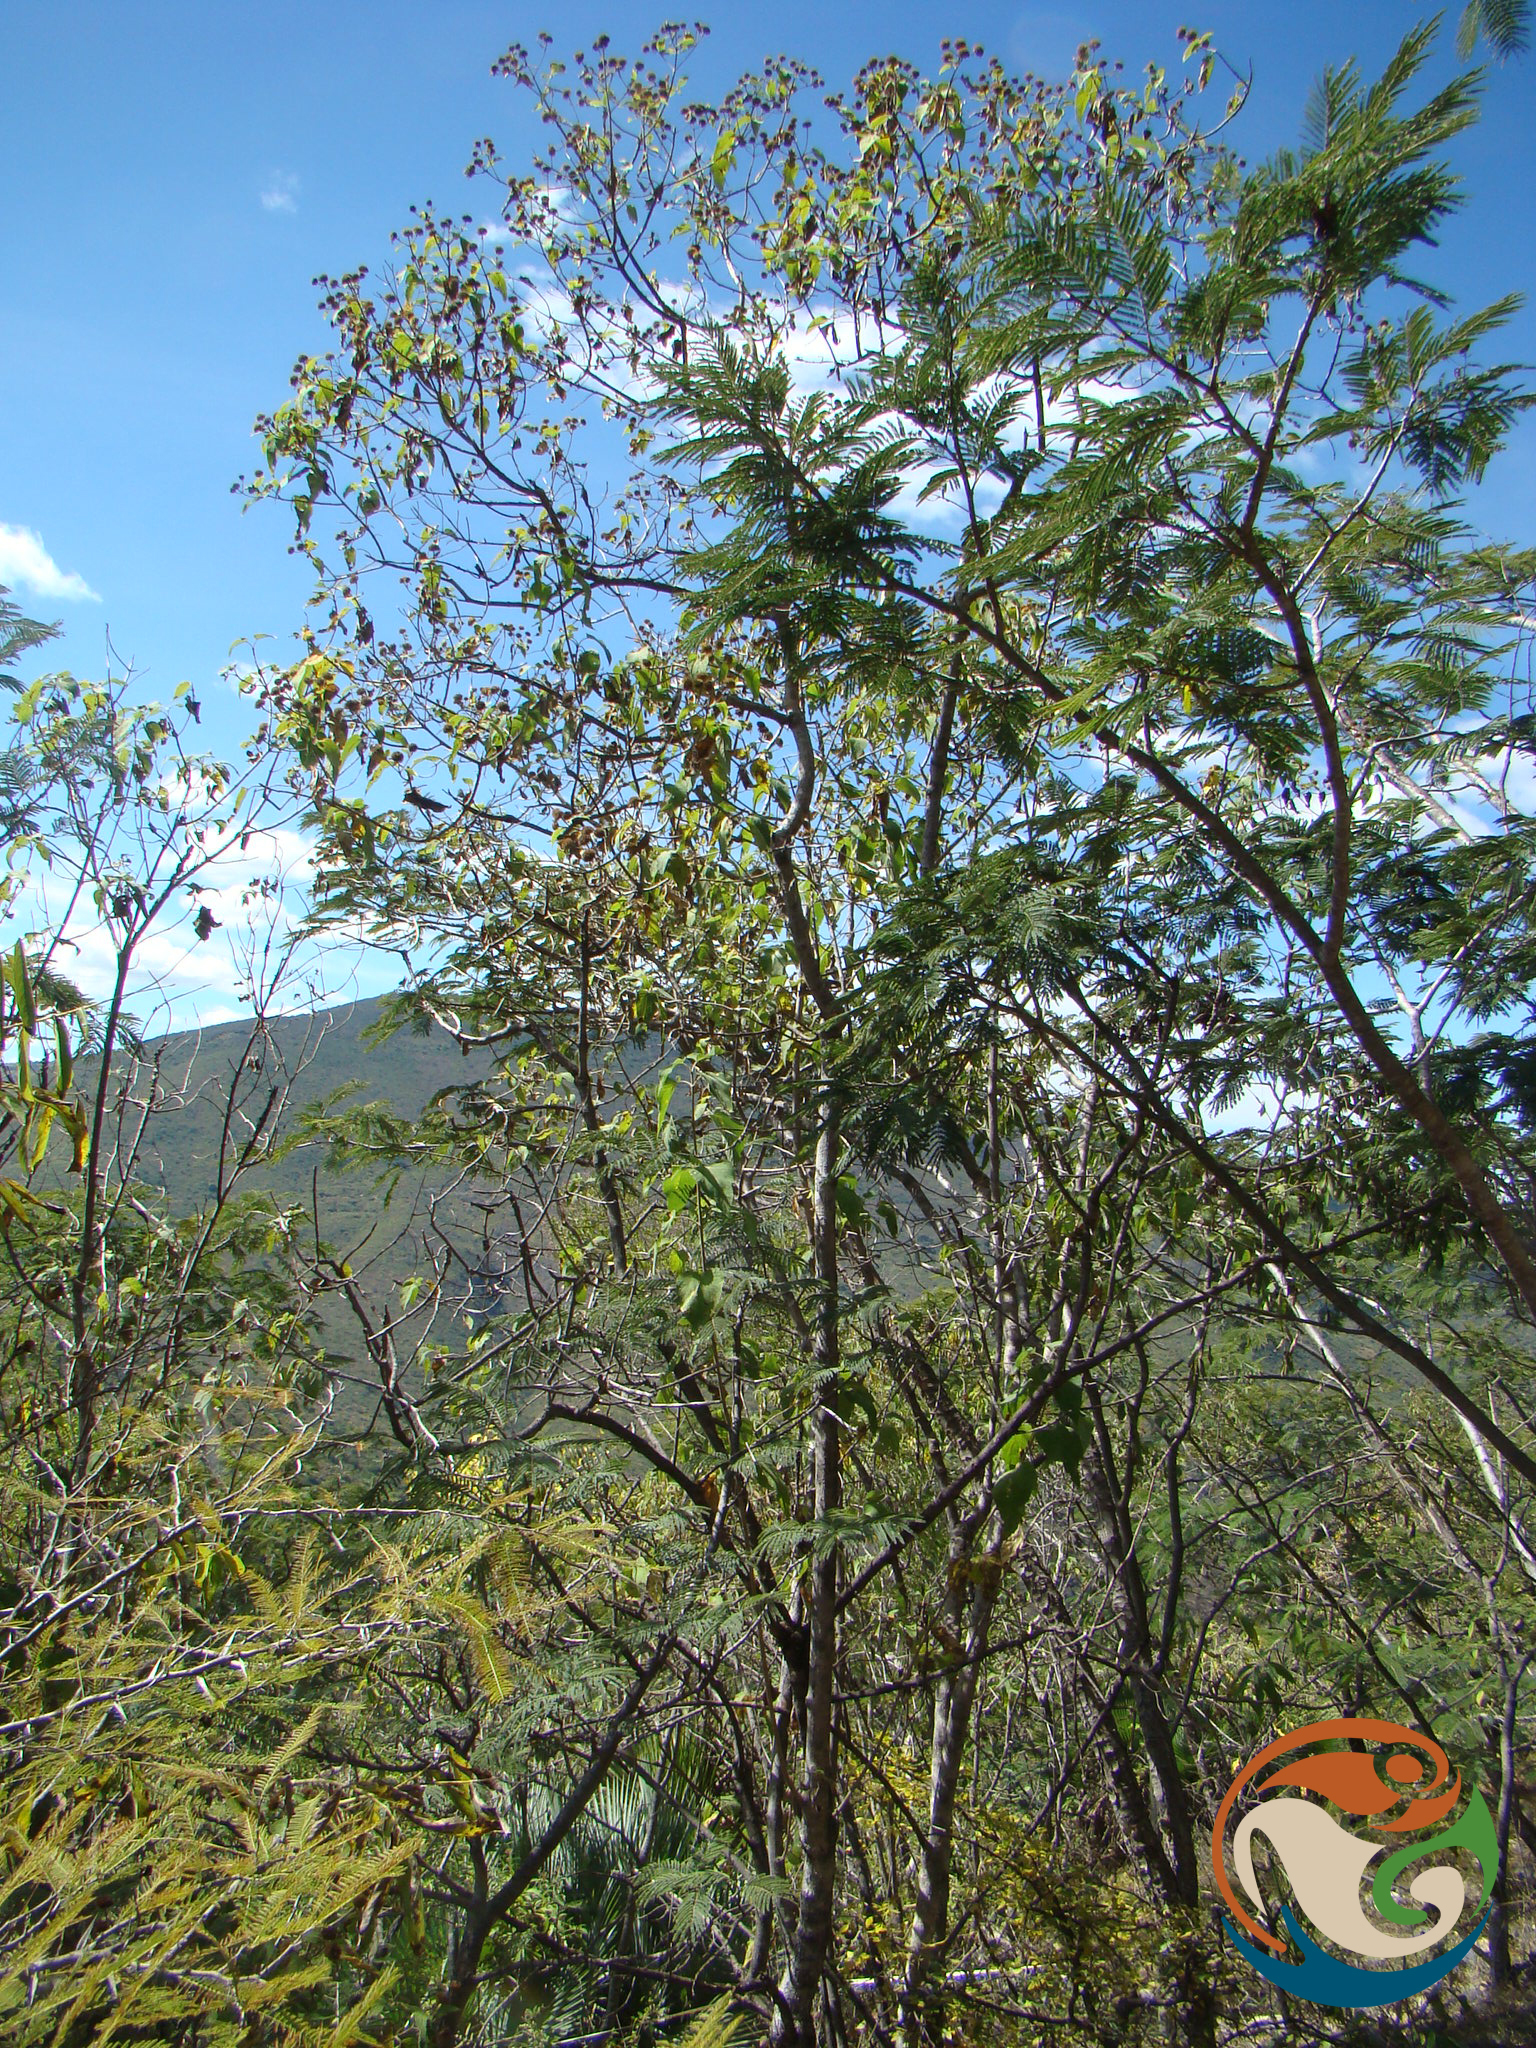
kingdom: Plantae
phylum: Tracheophyta
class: Magnoliopsida
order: Asterales
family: Asteraceae
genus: Dendroviguiera
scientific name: Dendroviguiera sphaerocephala
